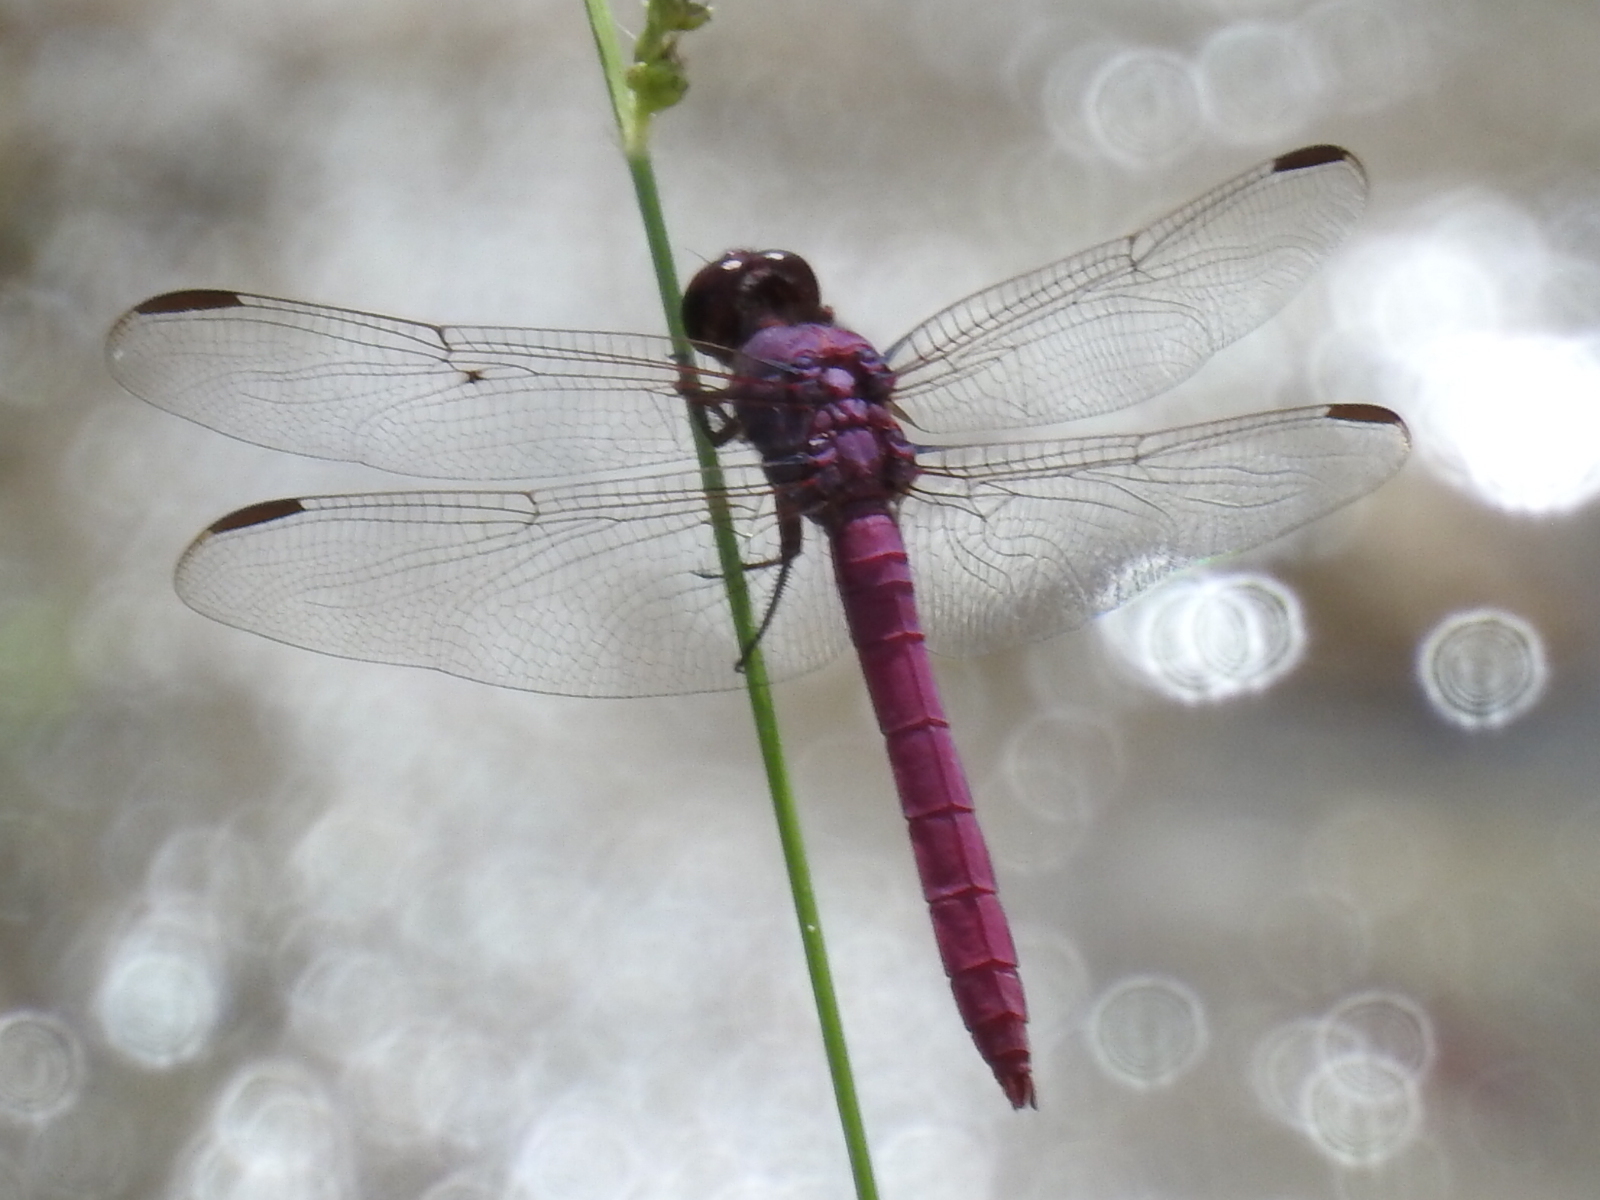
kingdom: Animalia
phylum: Arthropoda
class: Insecta
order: Odonata
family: Libellulidae
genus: Orthemis
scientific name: Orthemis ferruginea
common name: Roseate skimmer
